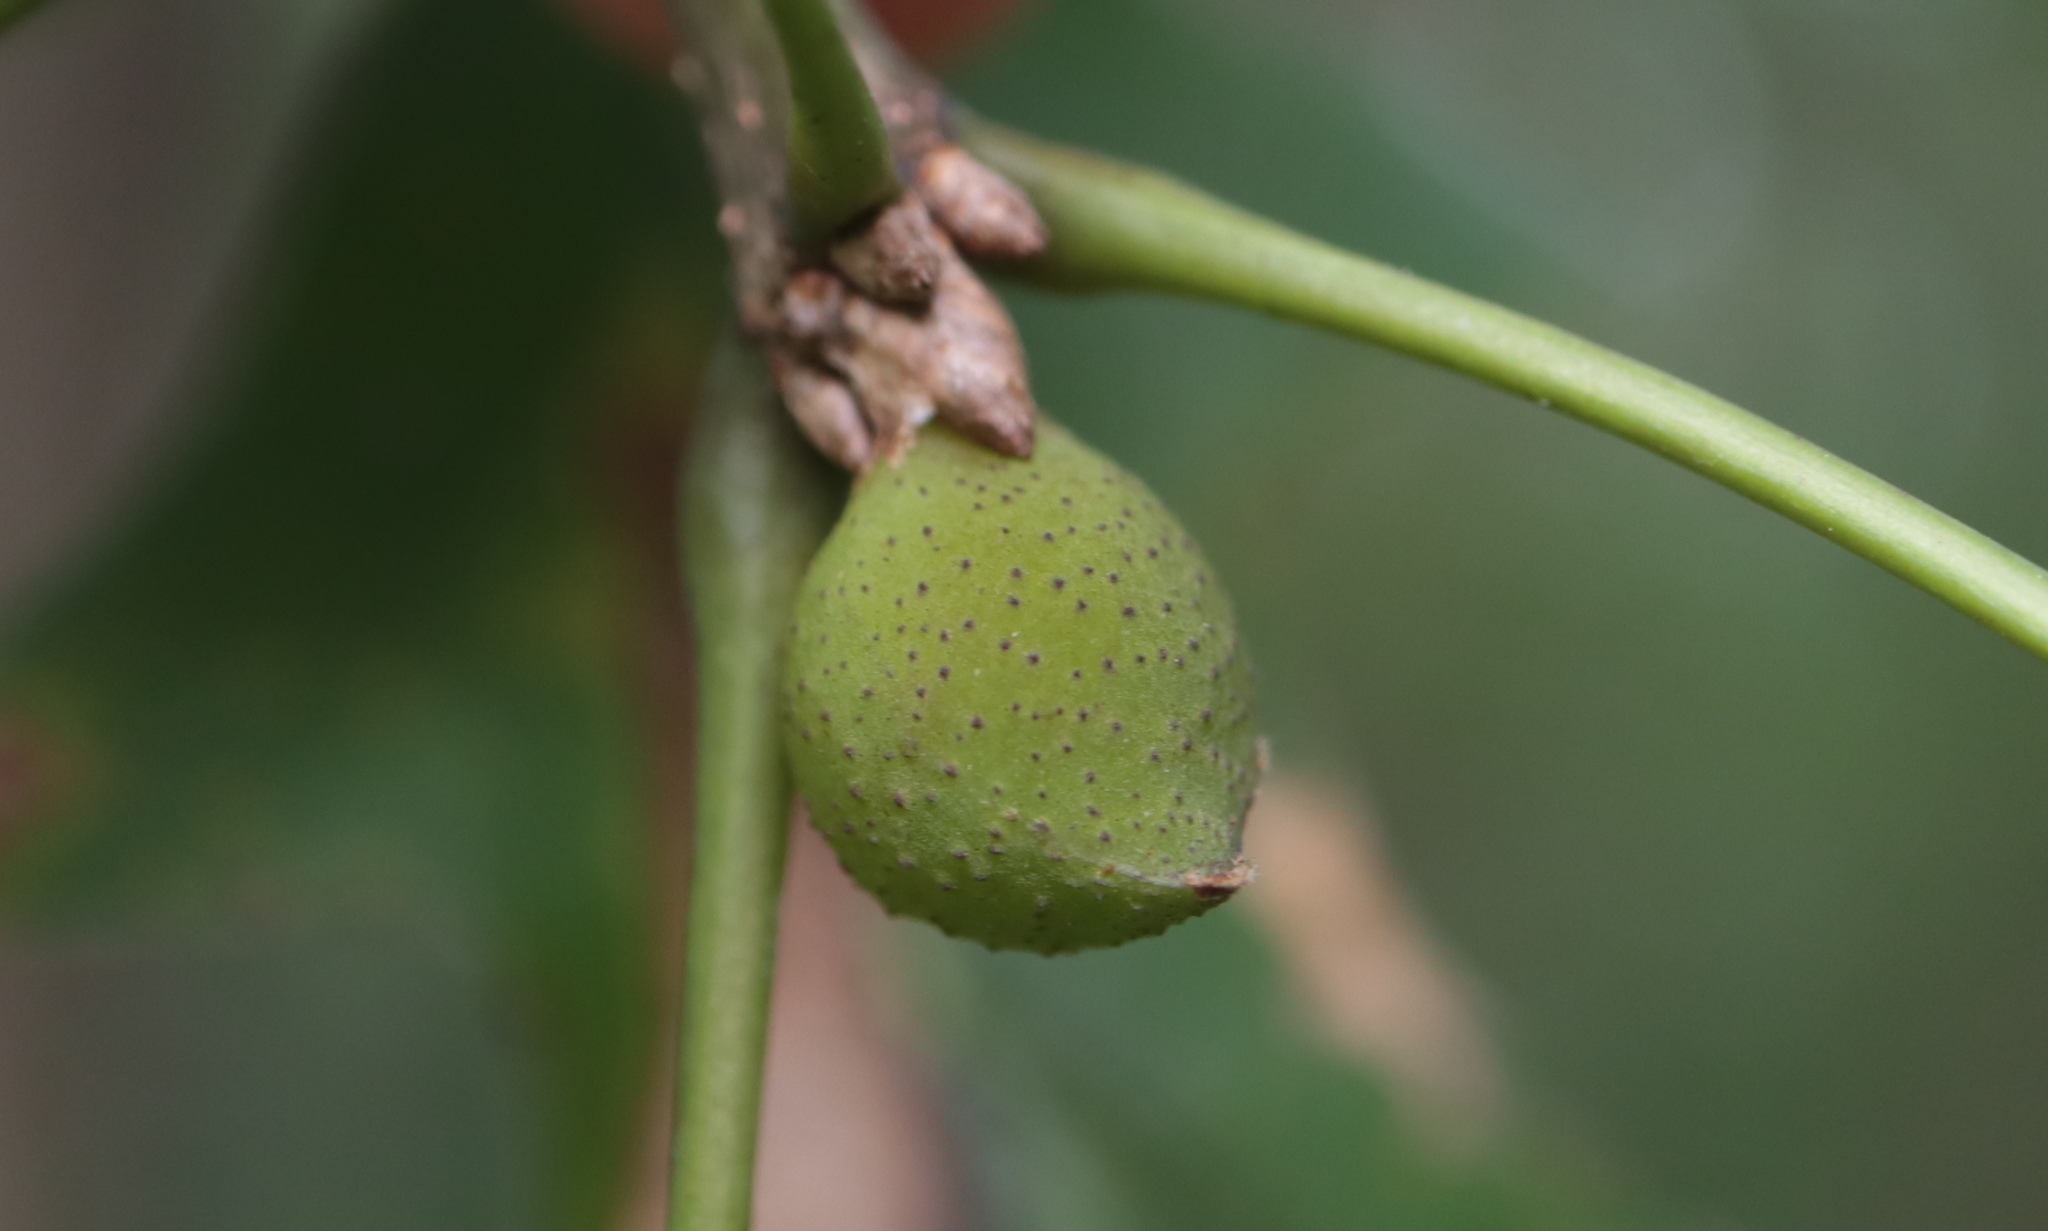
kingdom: Animalia
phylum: Arthropoda
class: Insecta
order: Hymenoptera
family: Cynipidae
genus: Amphibolips
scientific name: Amphibolips
